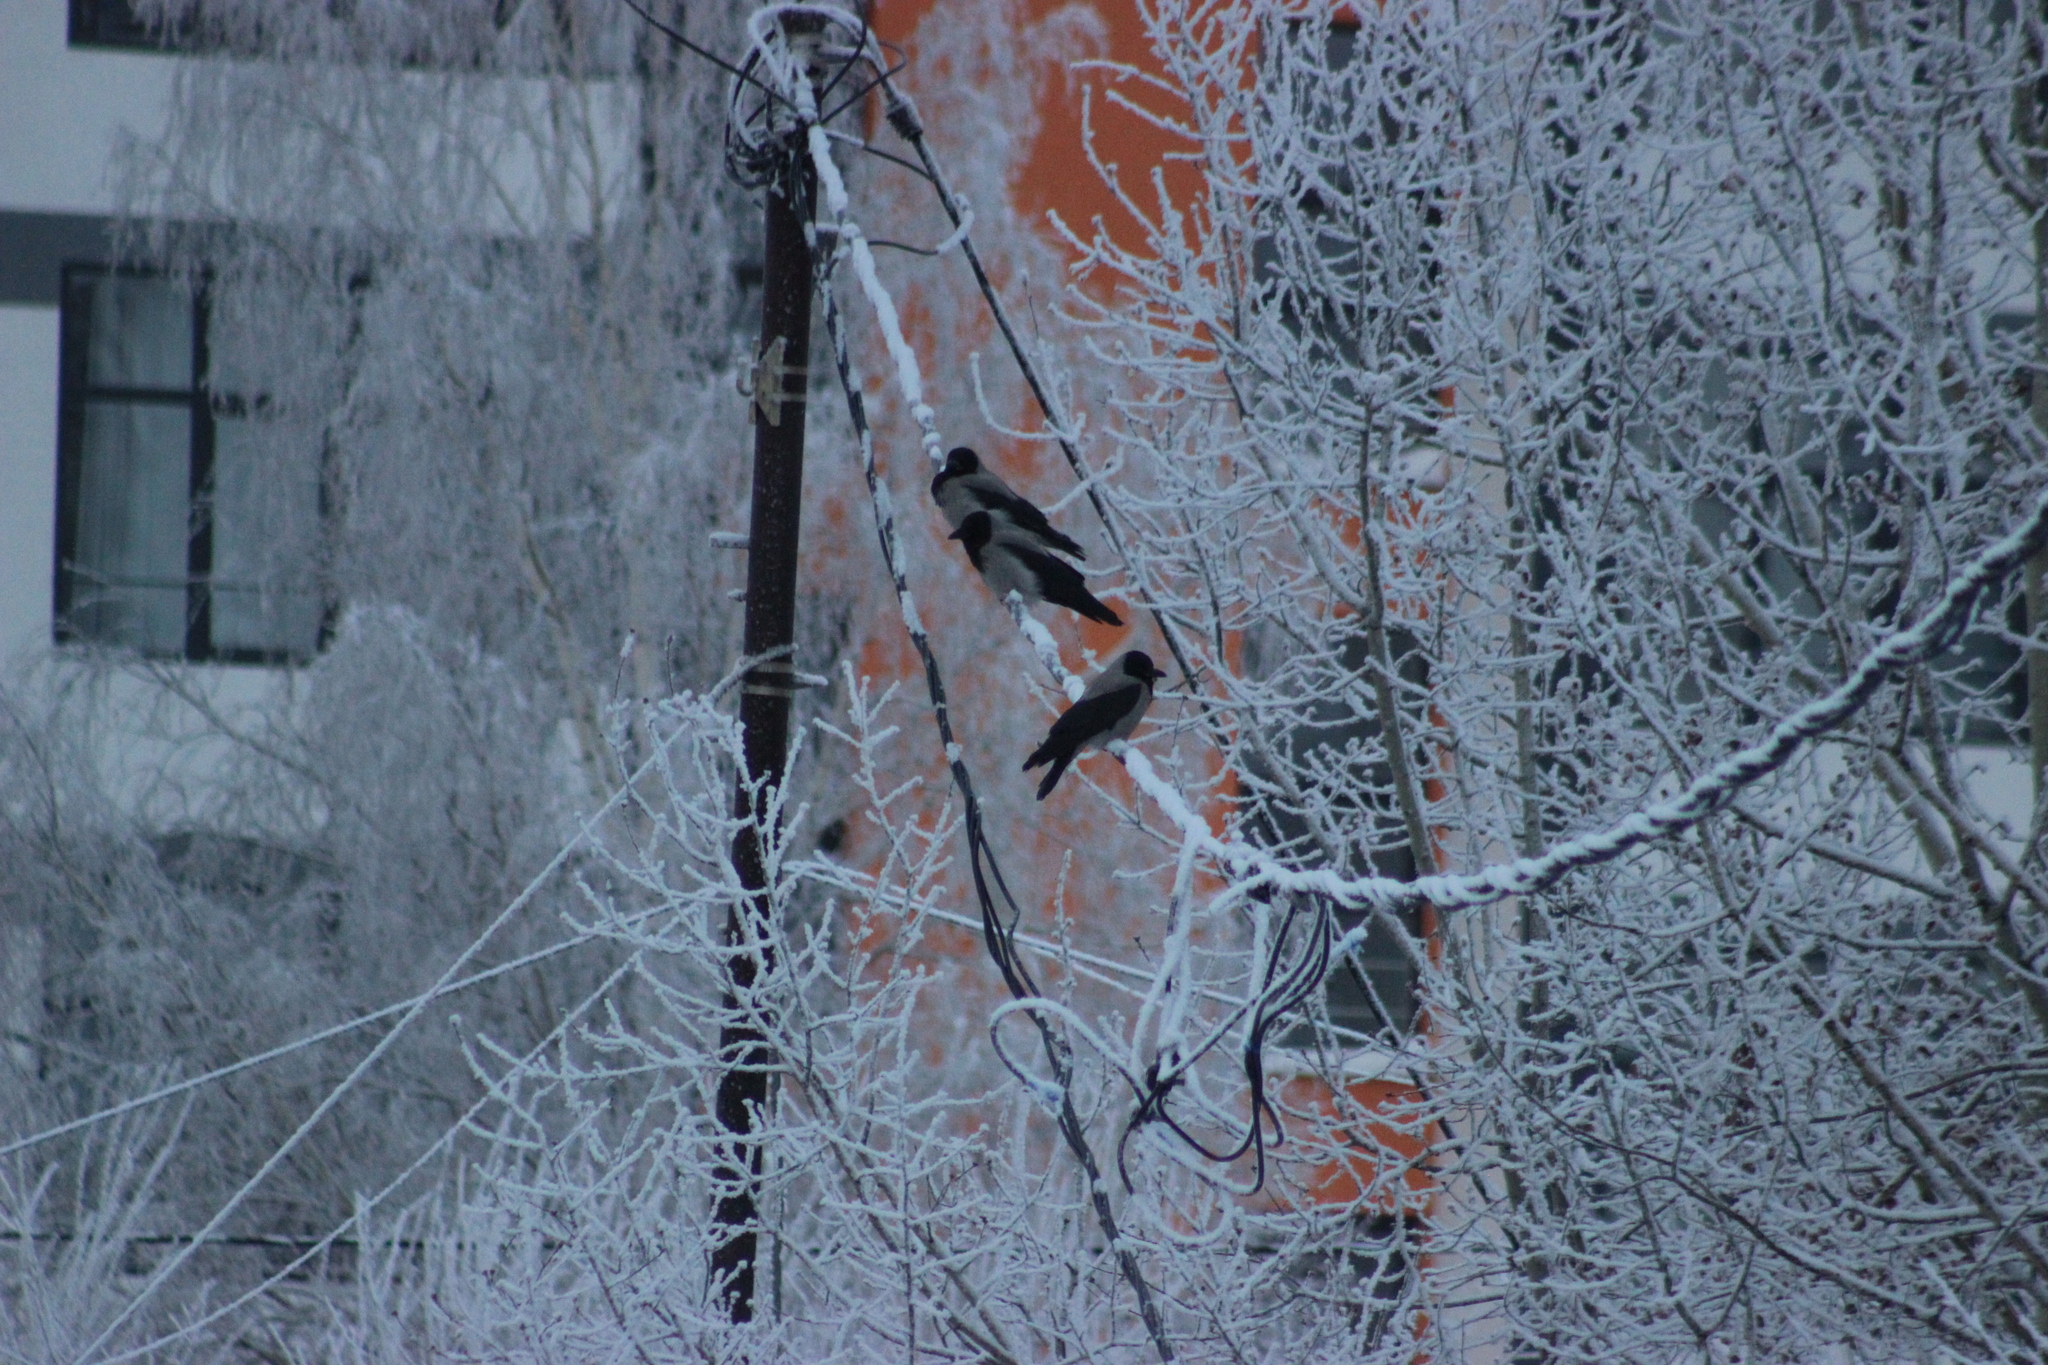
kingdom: Animalia
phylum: Chordata
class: Aves
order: Passeriformes
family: Corvidae
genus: Corvus
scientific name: Corvus cornix
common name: Hooded crow
